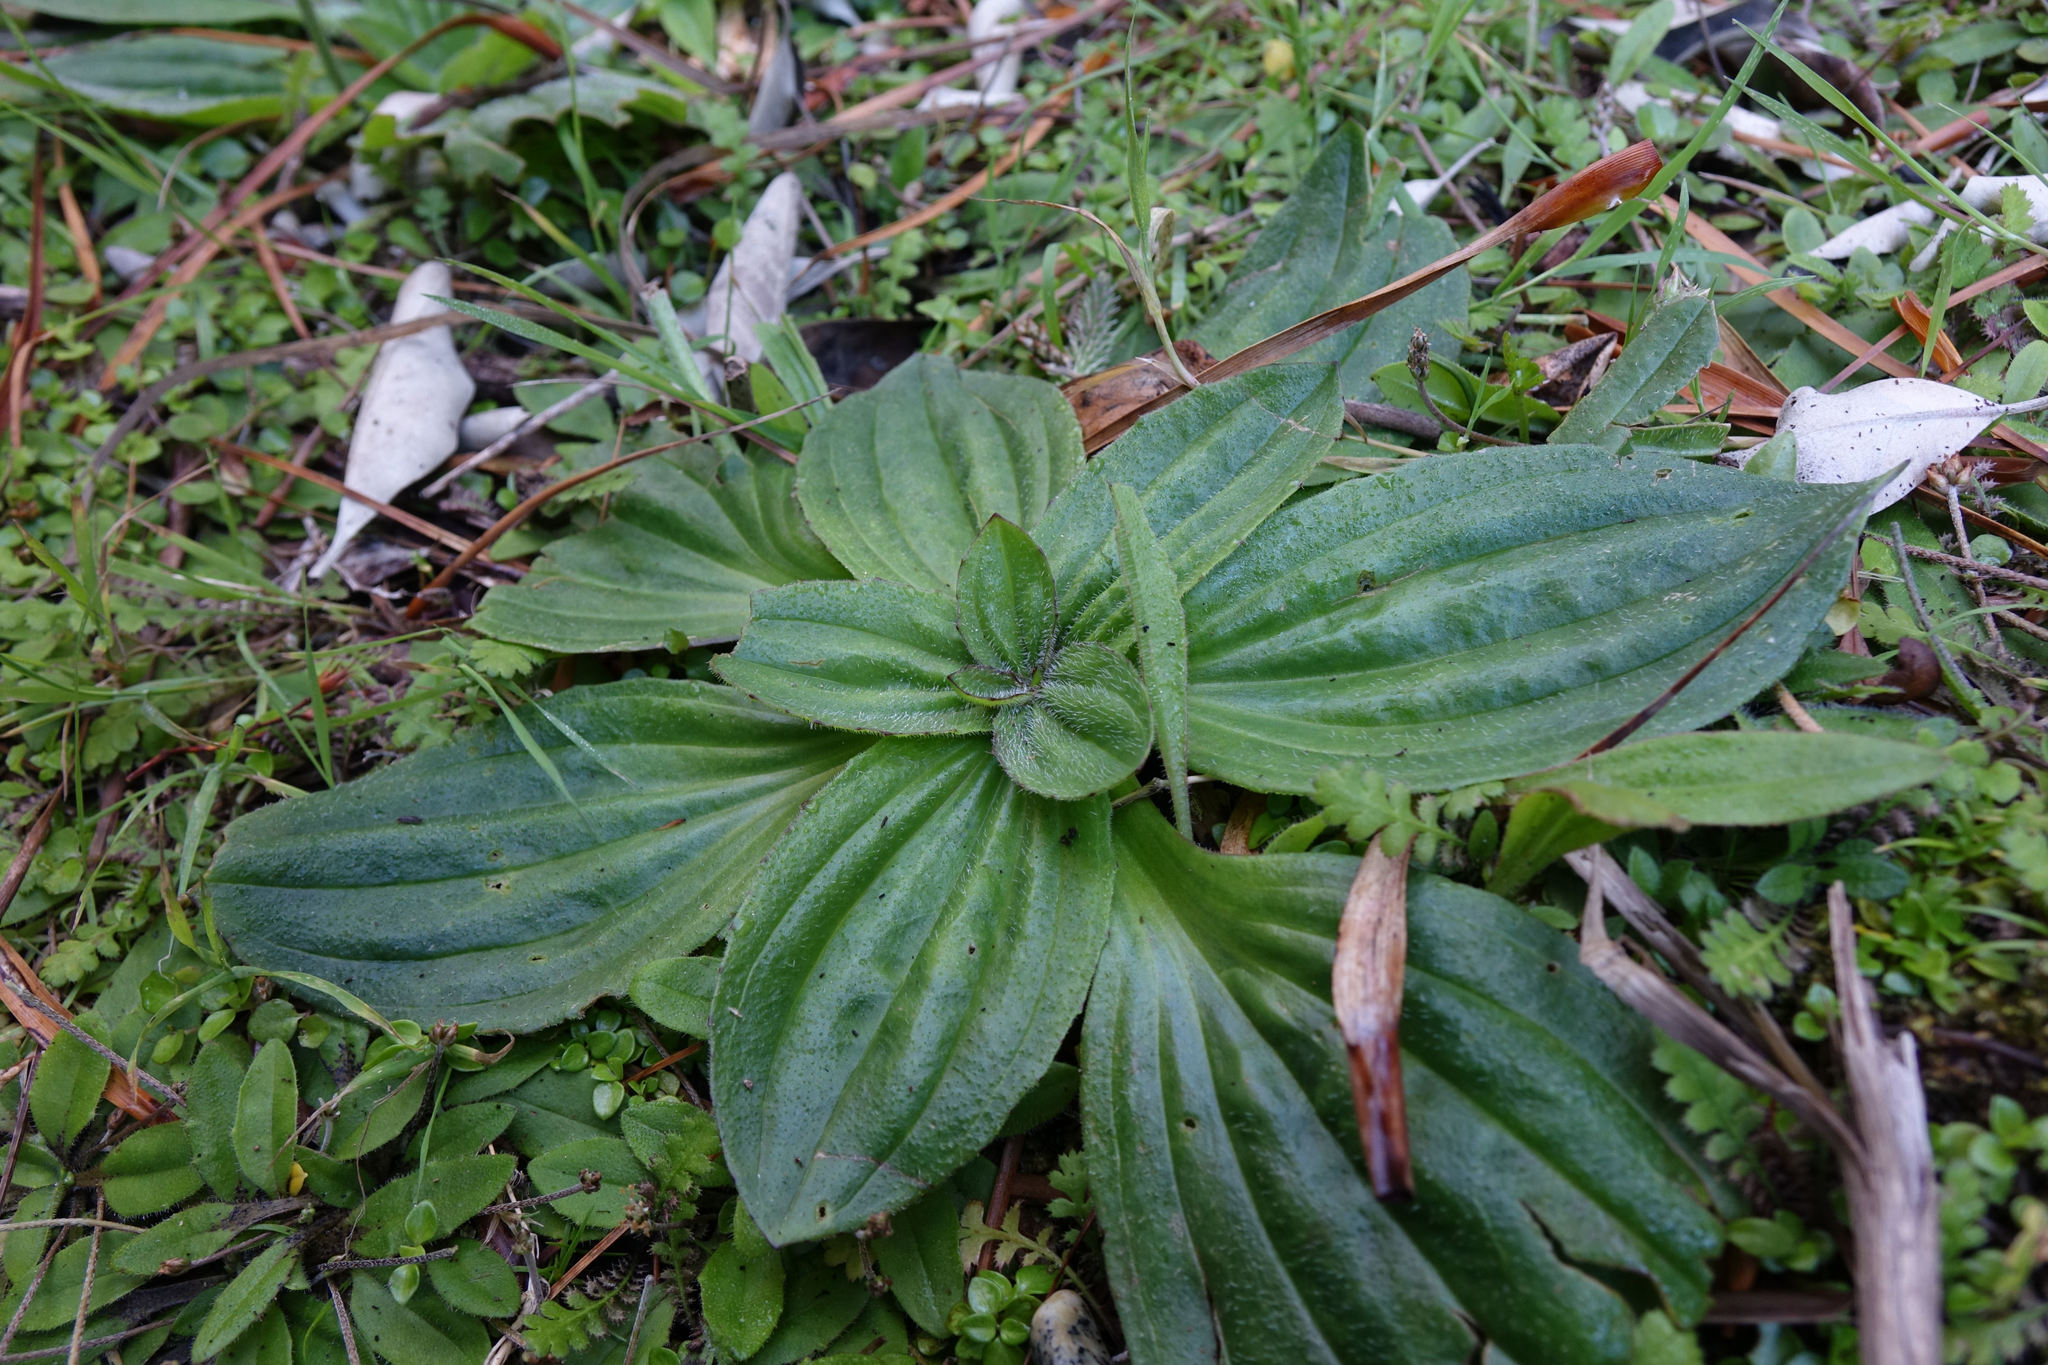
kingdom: Plantae
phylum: Tracheophyta
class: Magnoliopsida
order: Lamiales
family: Plantaginaceae
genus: Plantago
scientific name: Plantago australis
